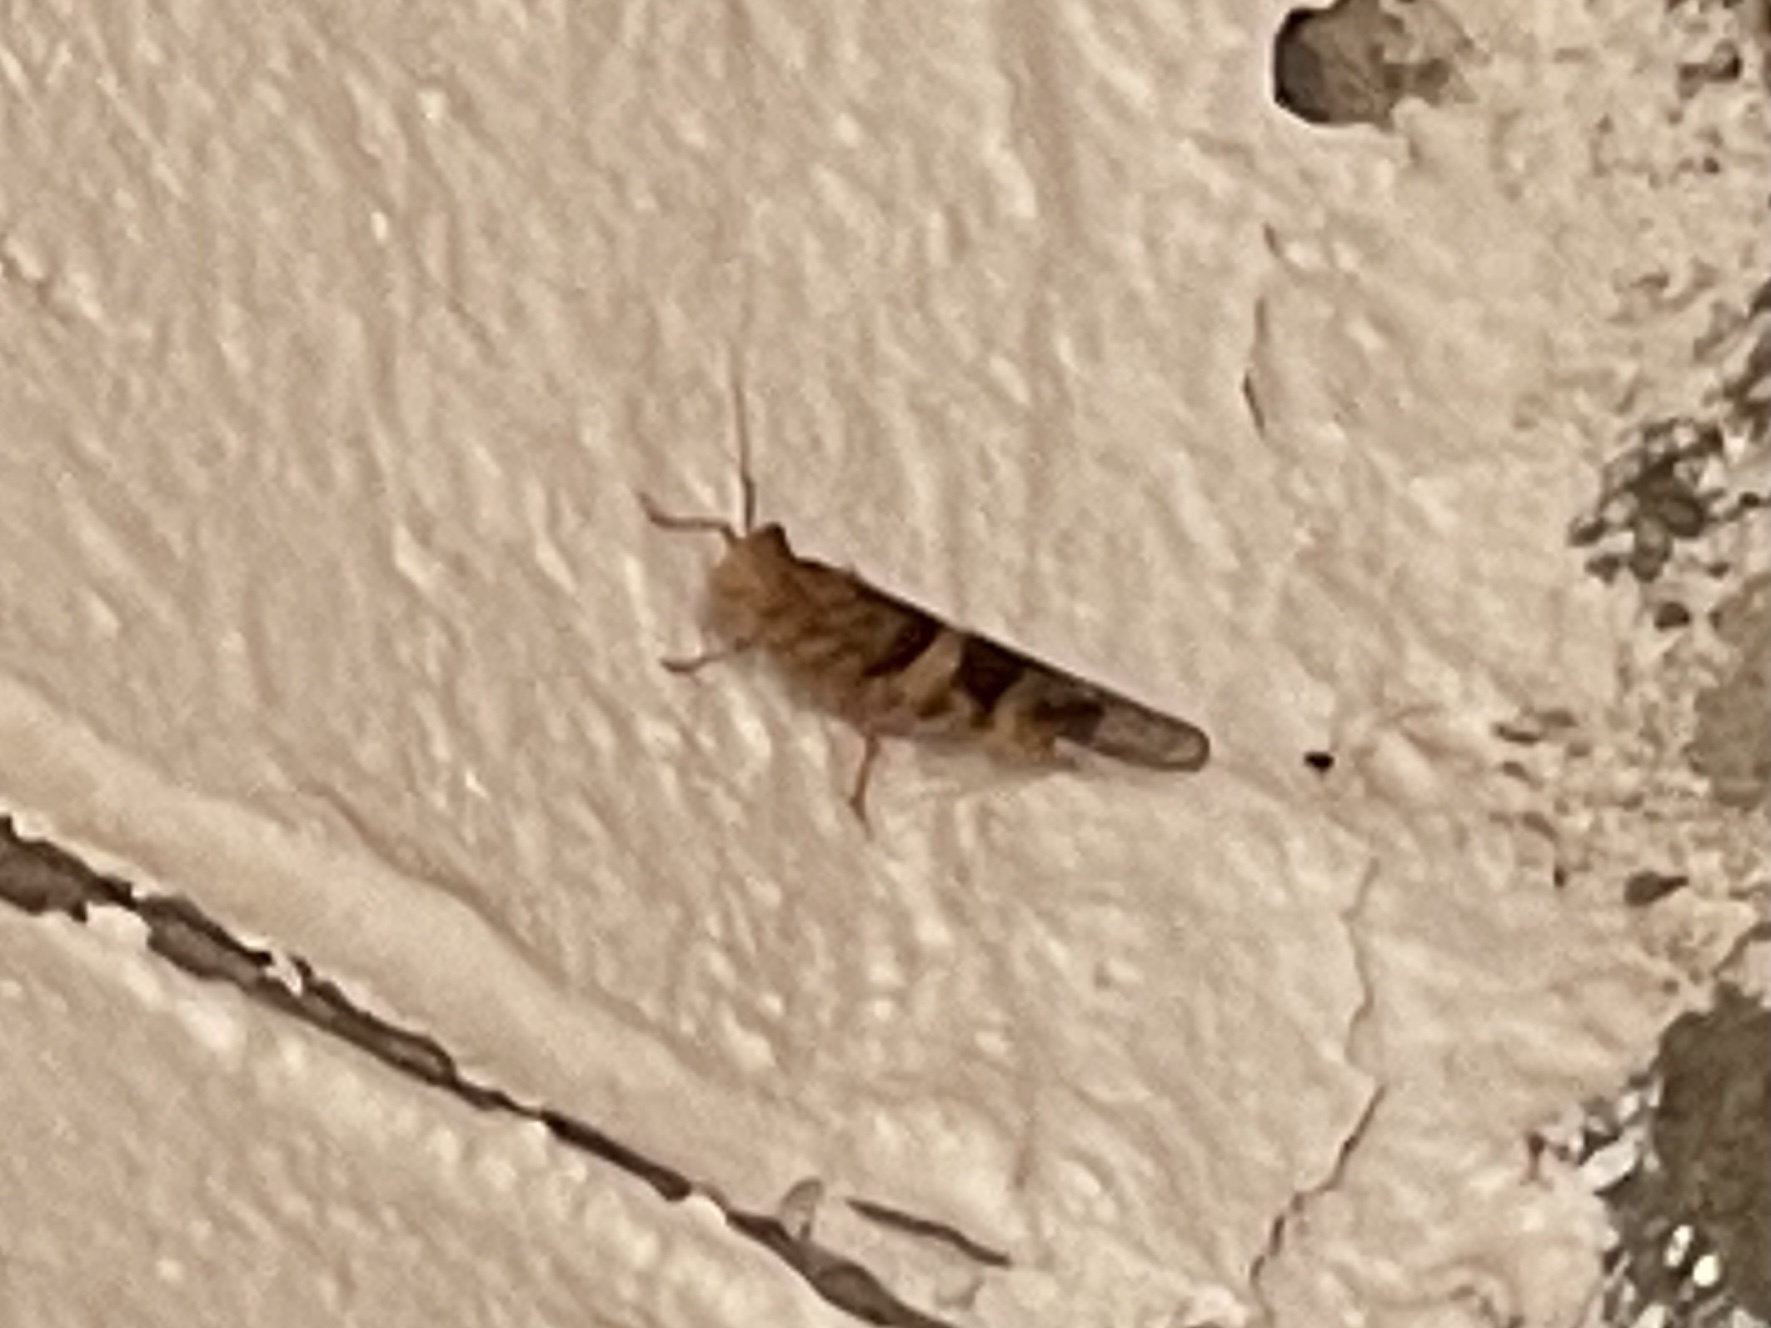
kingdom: Animalia
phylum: Arthropoda
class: Insecta
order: Orthoptera
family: Acrididae
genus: Trimerotropis
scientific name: Trimerotropis pallidipennis
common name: Pallid-winged grasshopper
